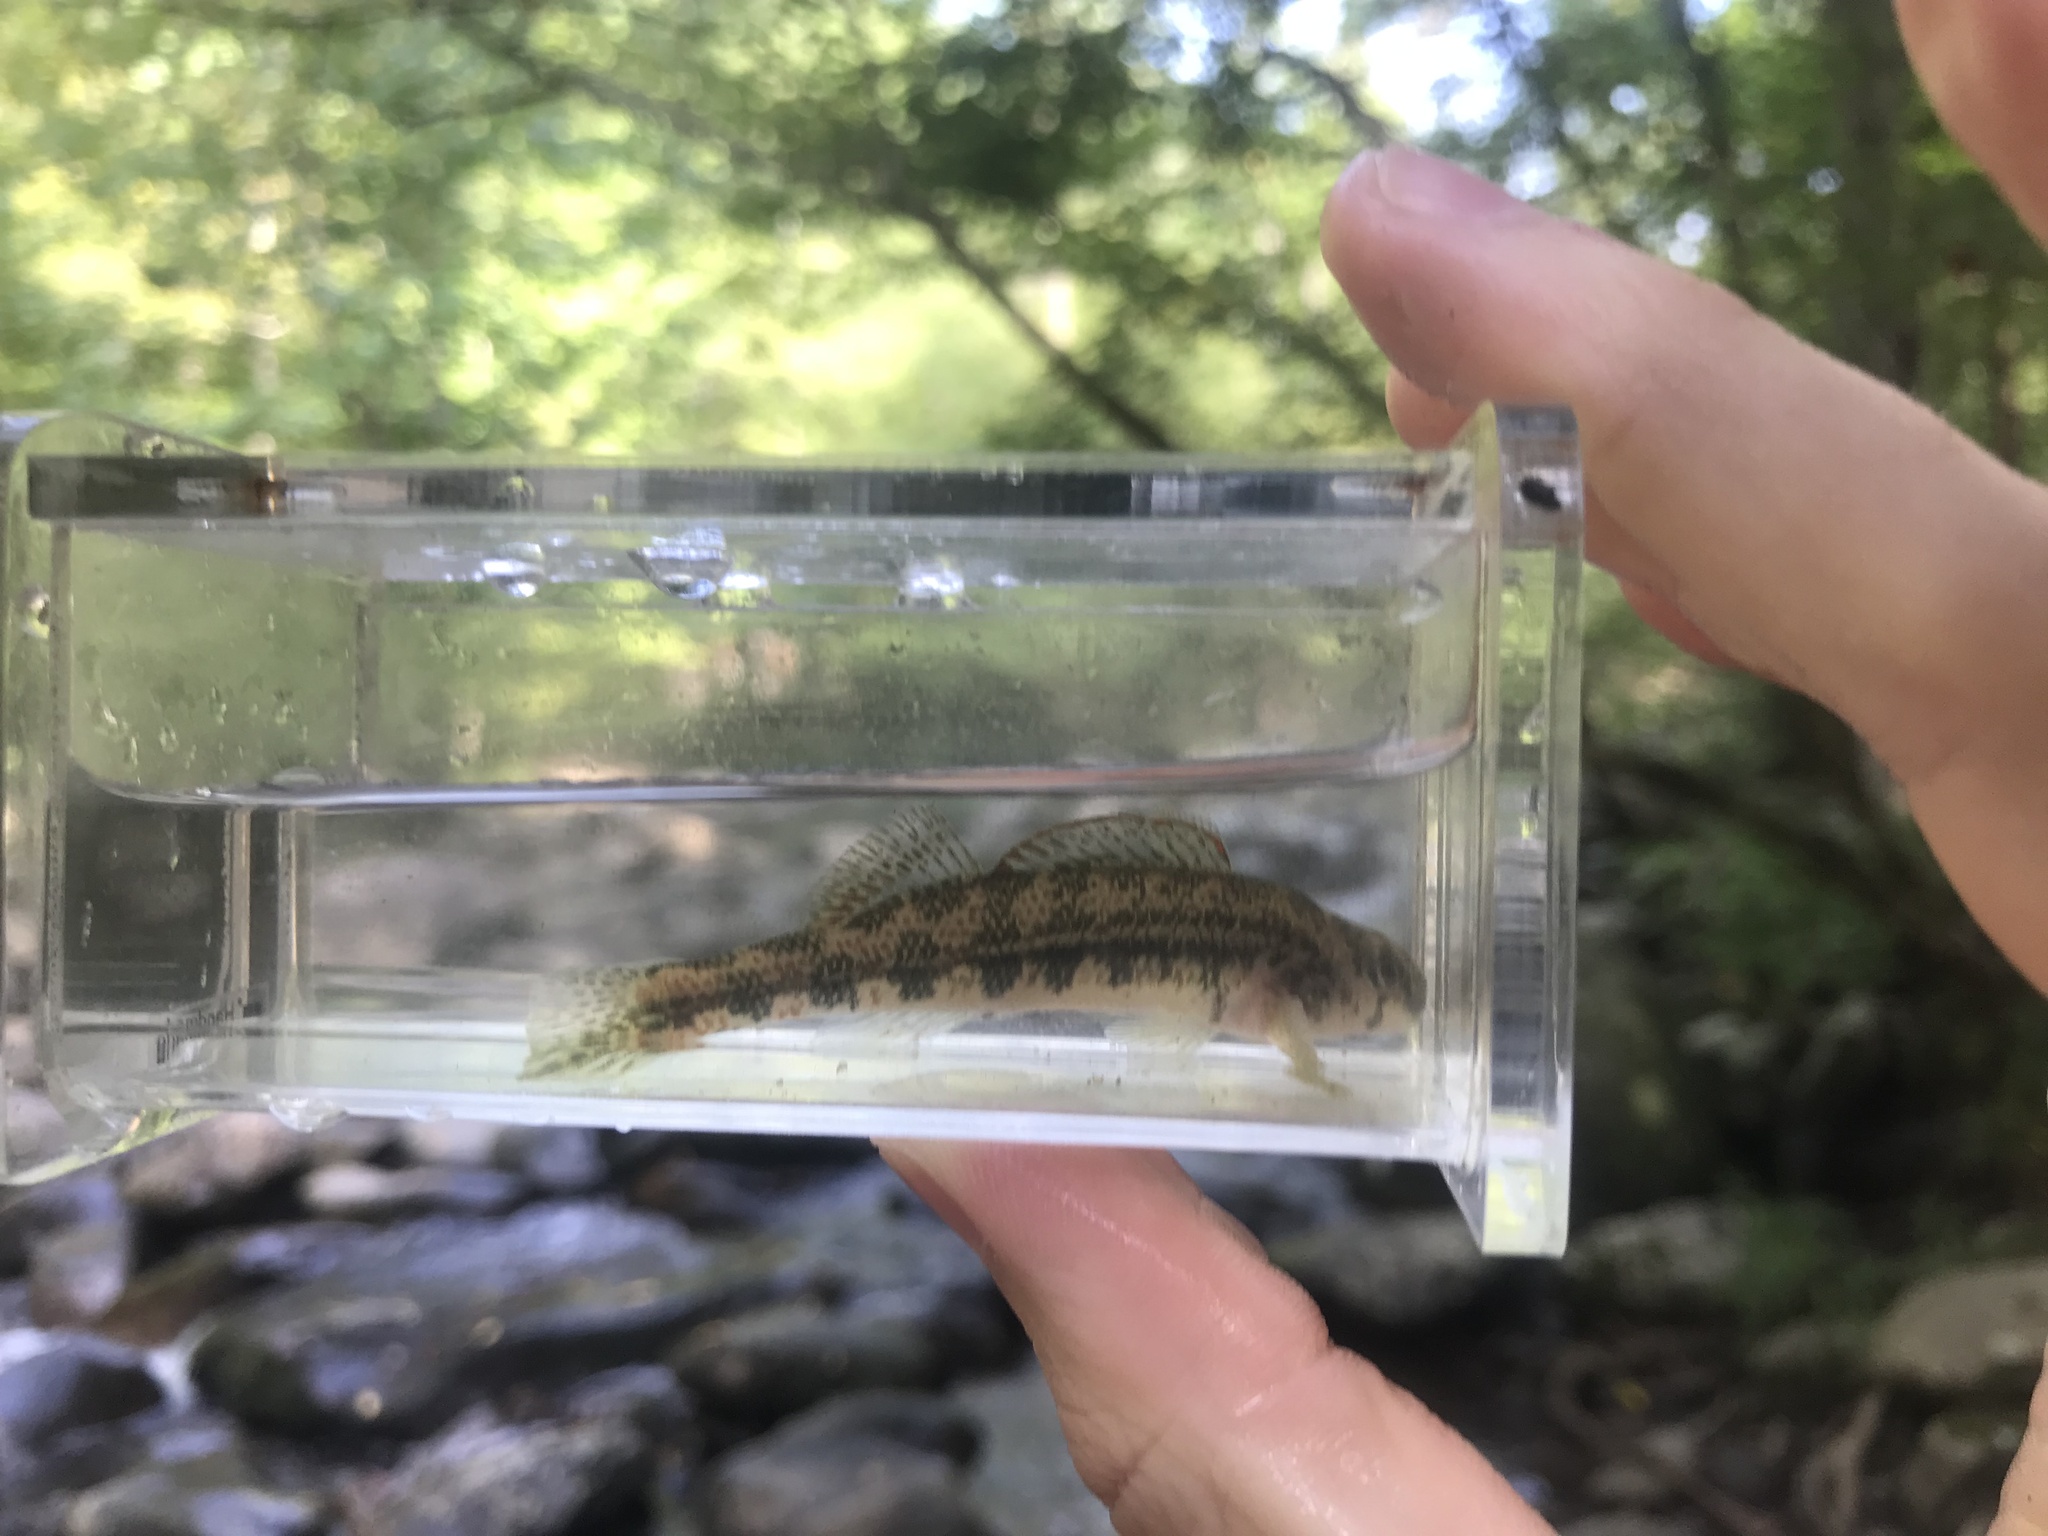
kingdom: Animalia
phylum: Chordata
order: Perciformes
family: Percidae
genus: Etheostoma
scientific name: Etheostoma simoterum
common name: Snubnose darter
